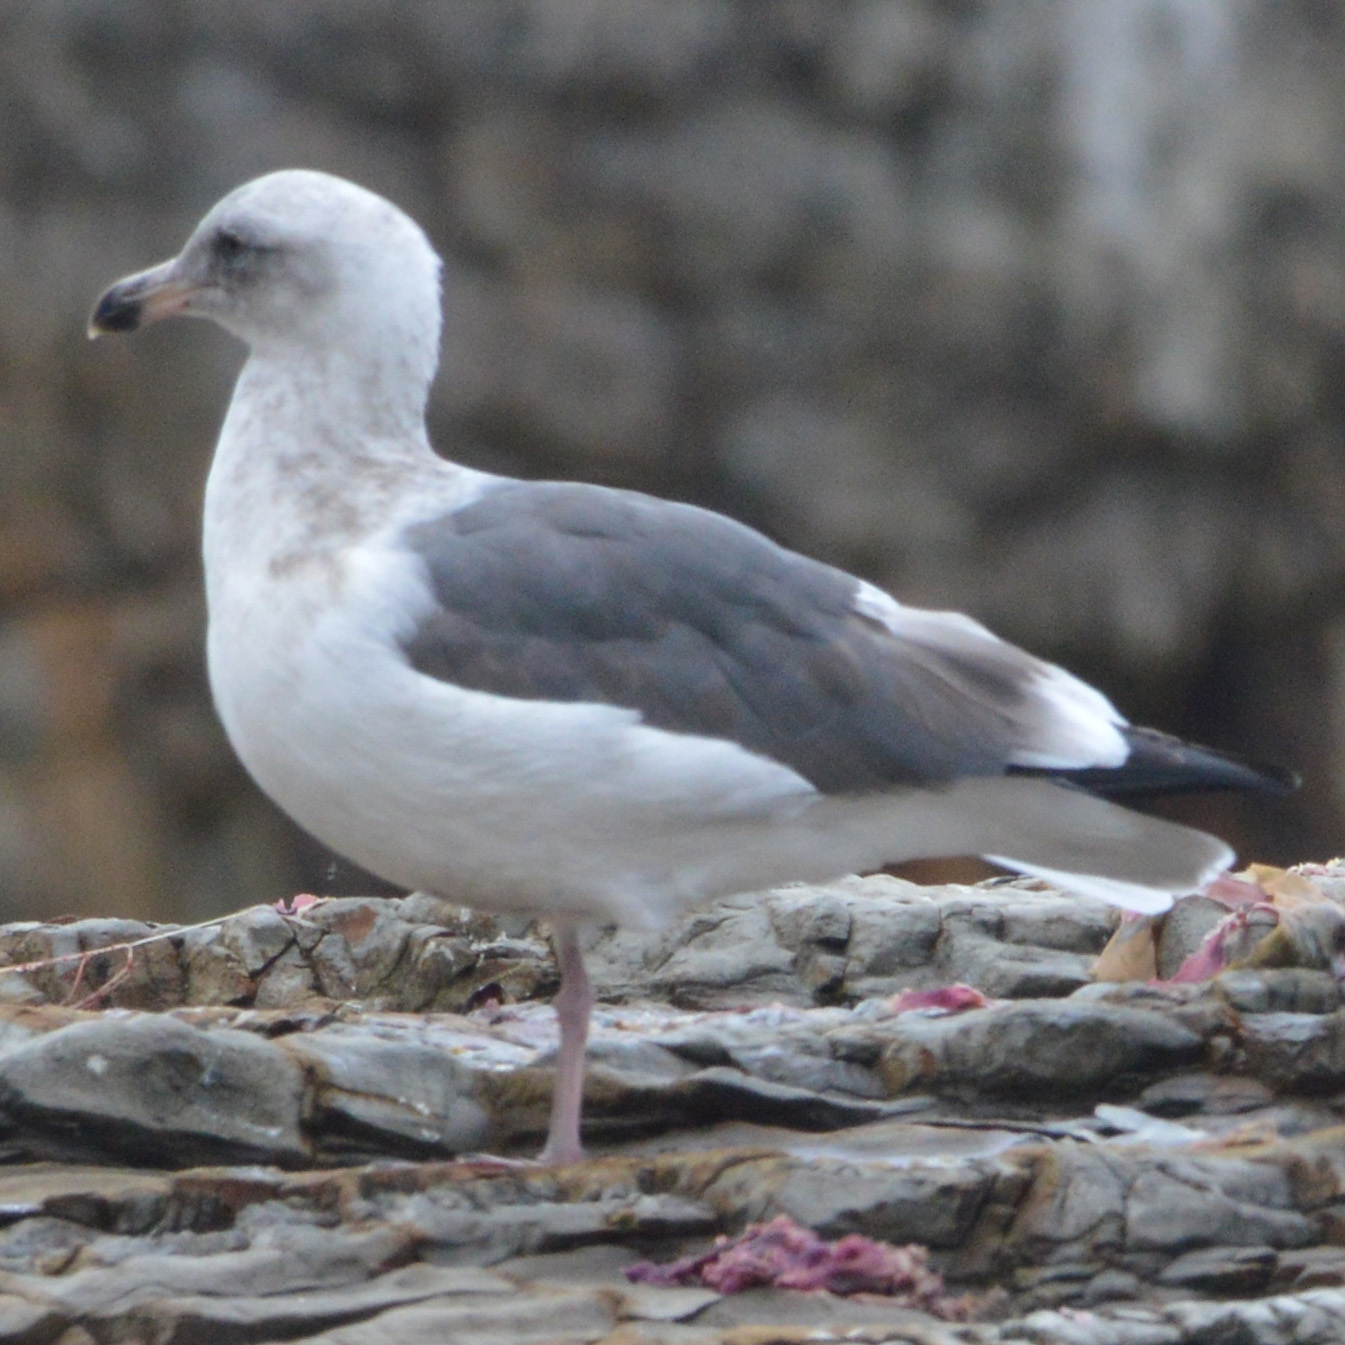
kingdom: Animalia
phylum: Chordata
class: Aves
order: Charadriiformes
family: Laridae
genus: Larus
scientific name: Larus occidentalis
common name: Western gull
